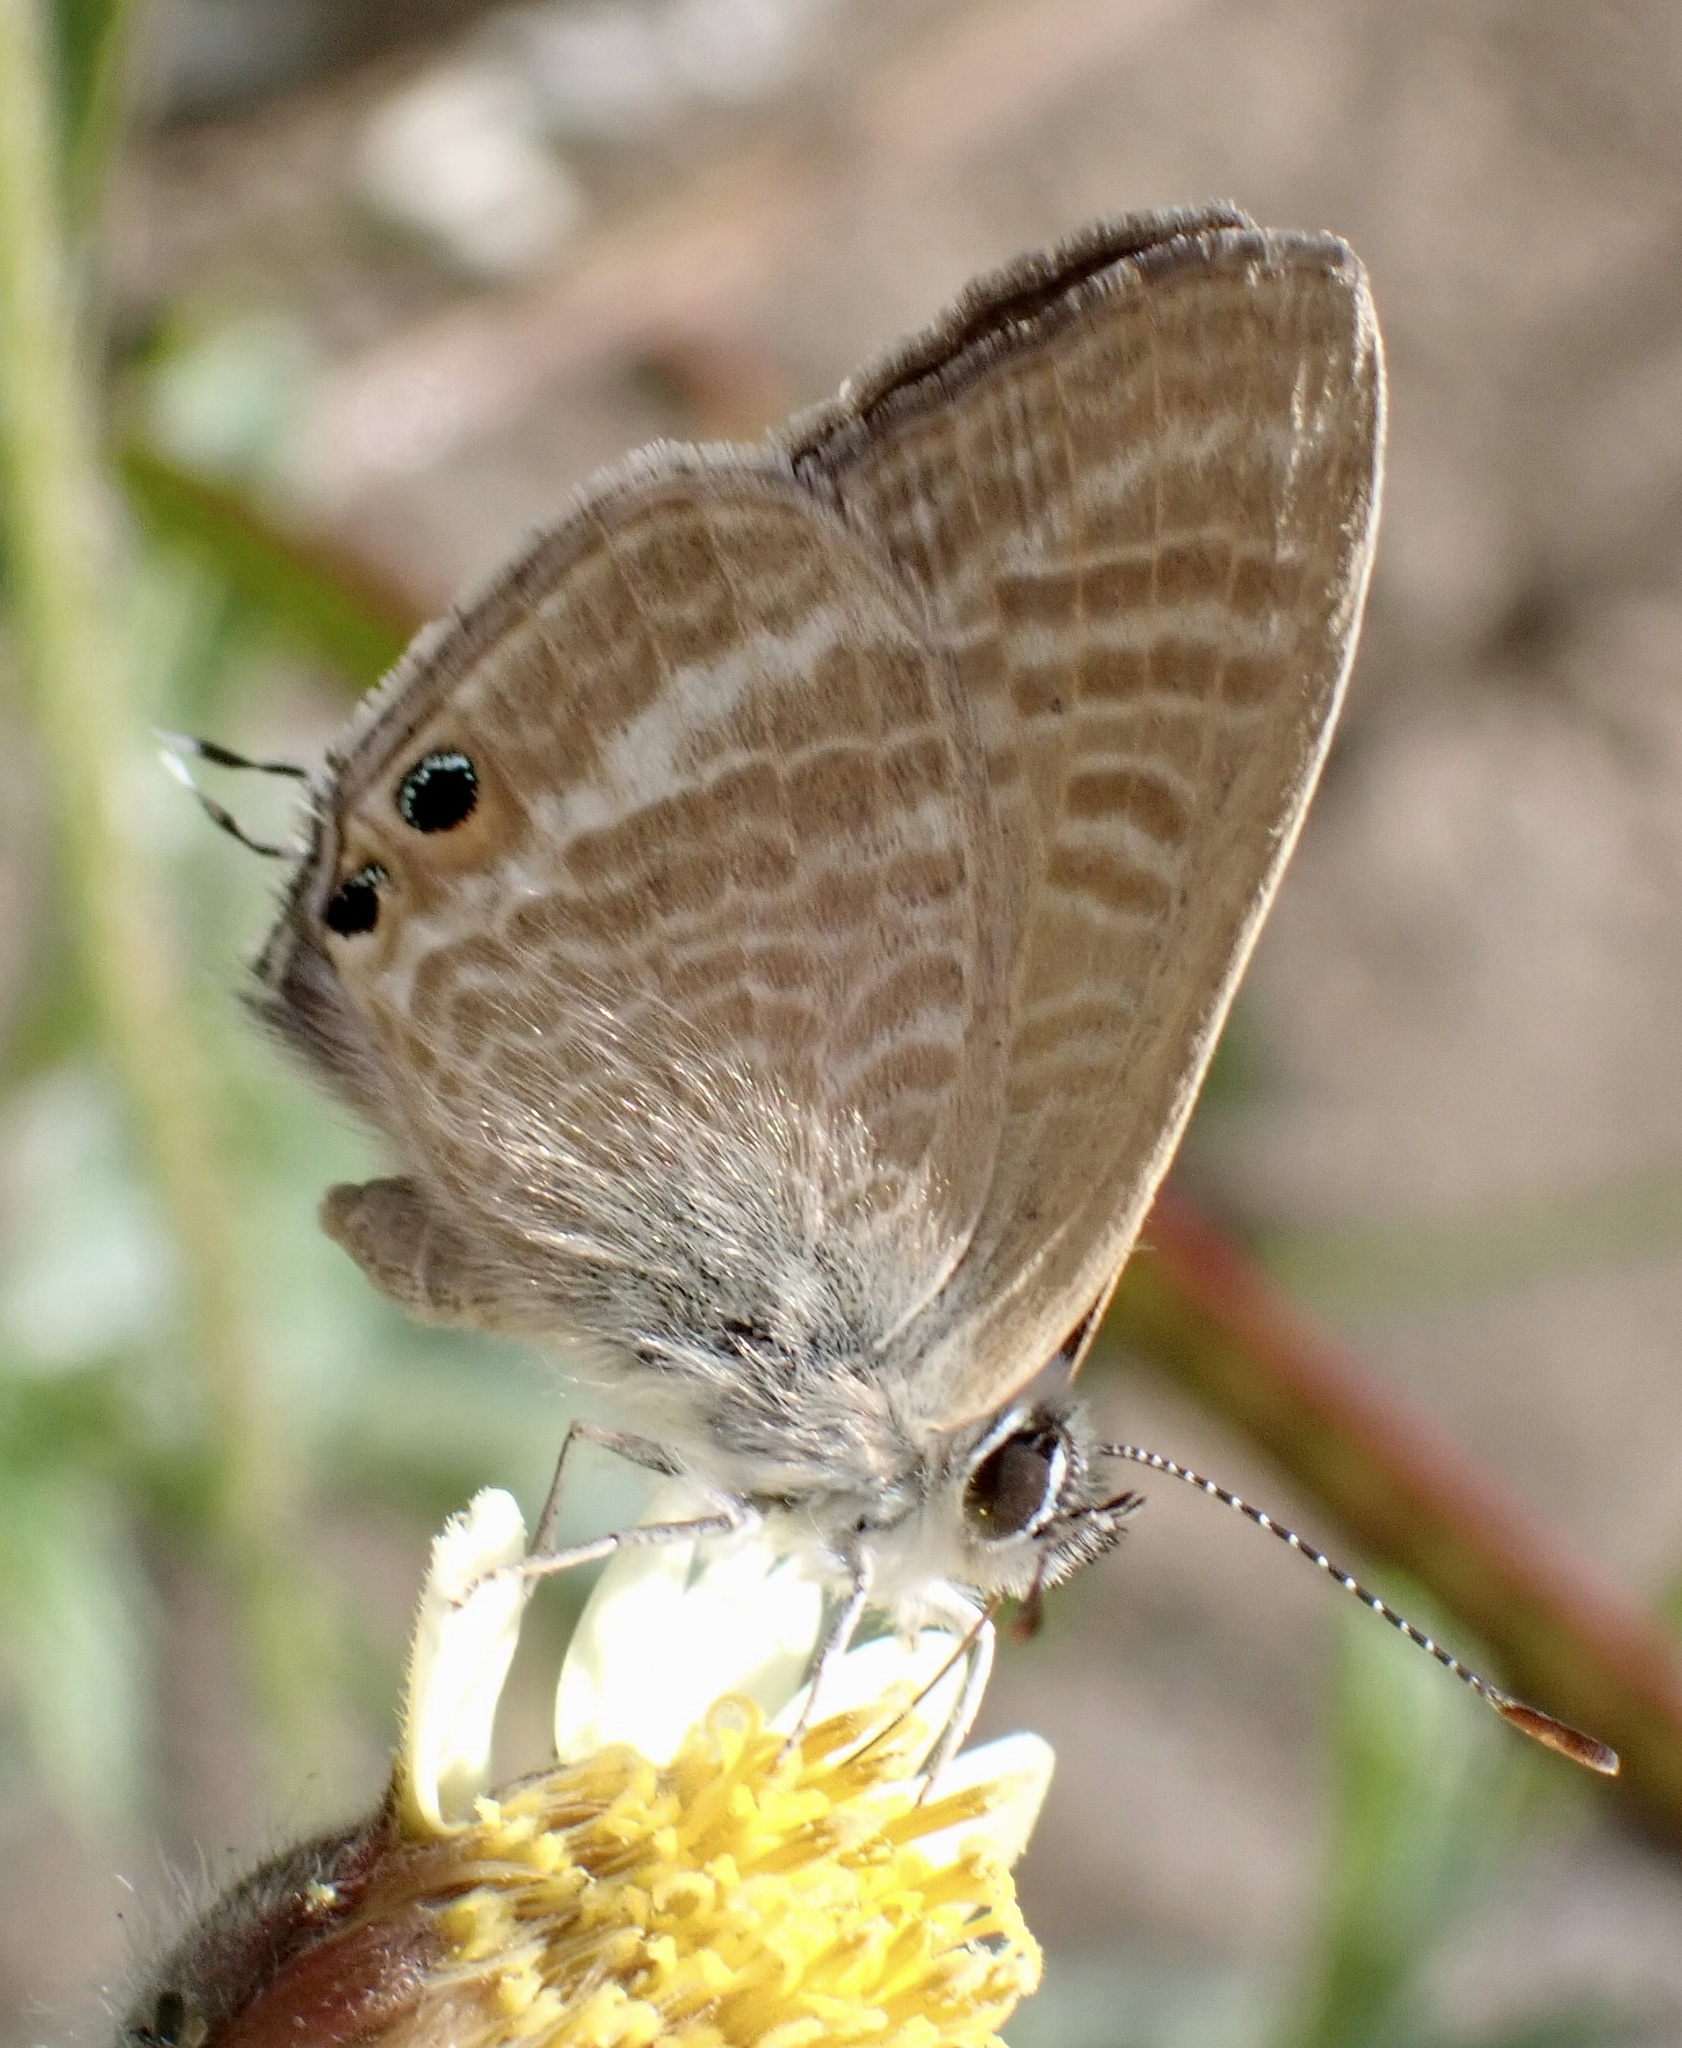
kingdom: Animalia
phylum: Arthropoda
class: Insecta
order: Lepidoptera
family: Lycaenidae
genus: Lampides
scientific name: Lampides boeticus
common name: Long-tailed blue
